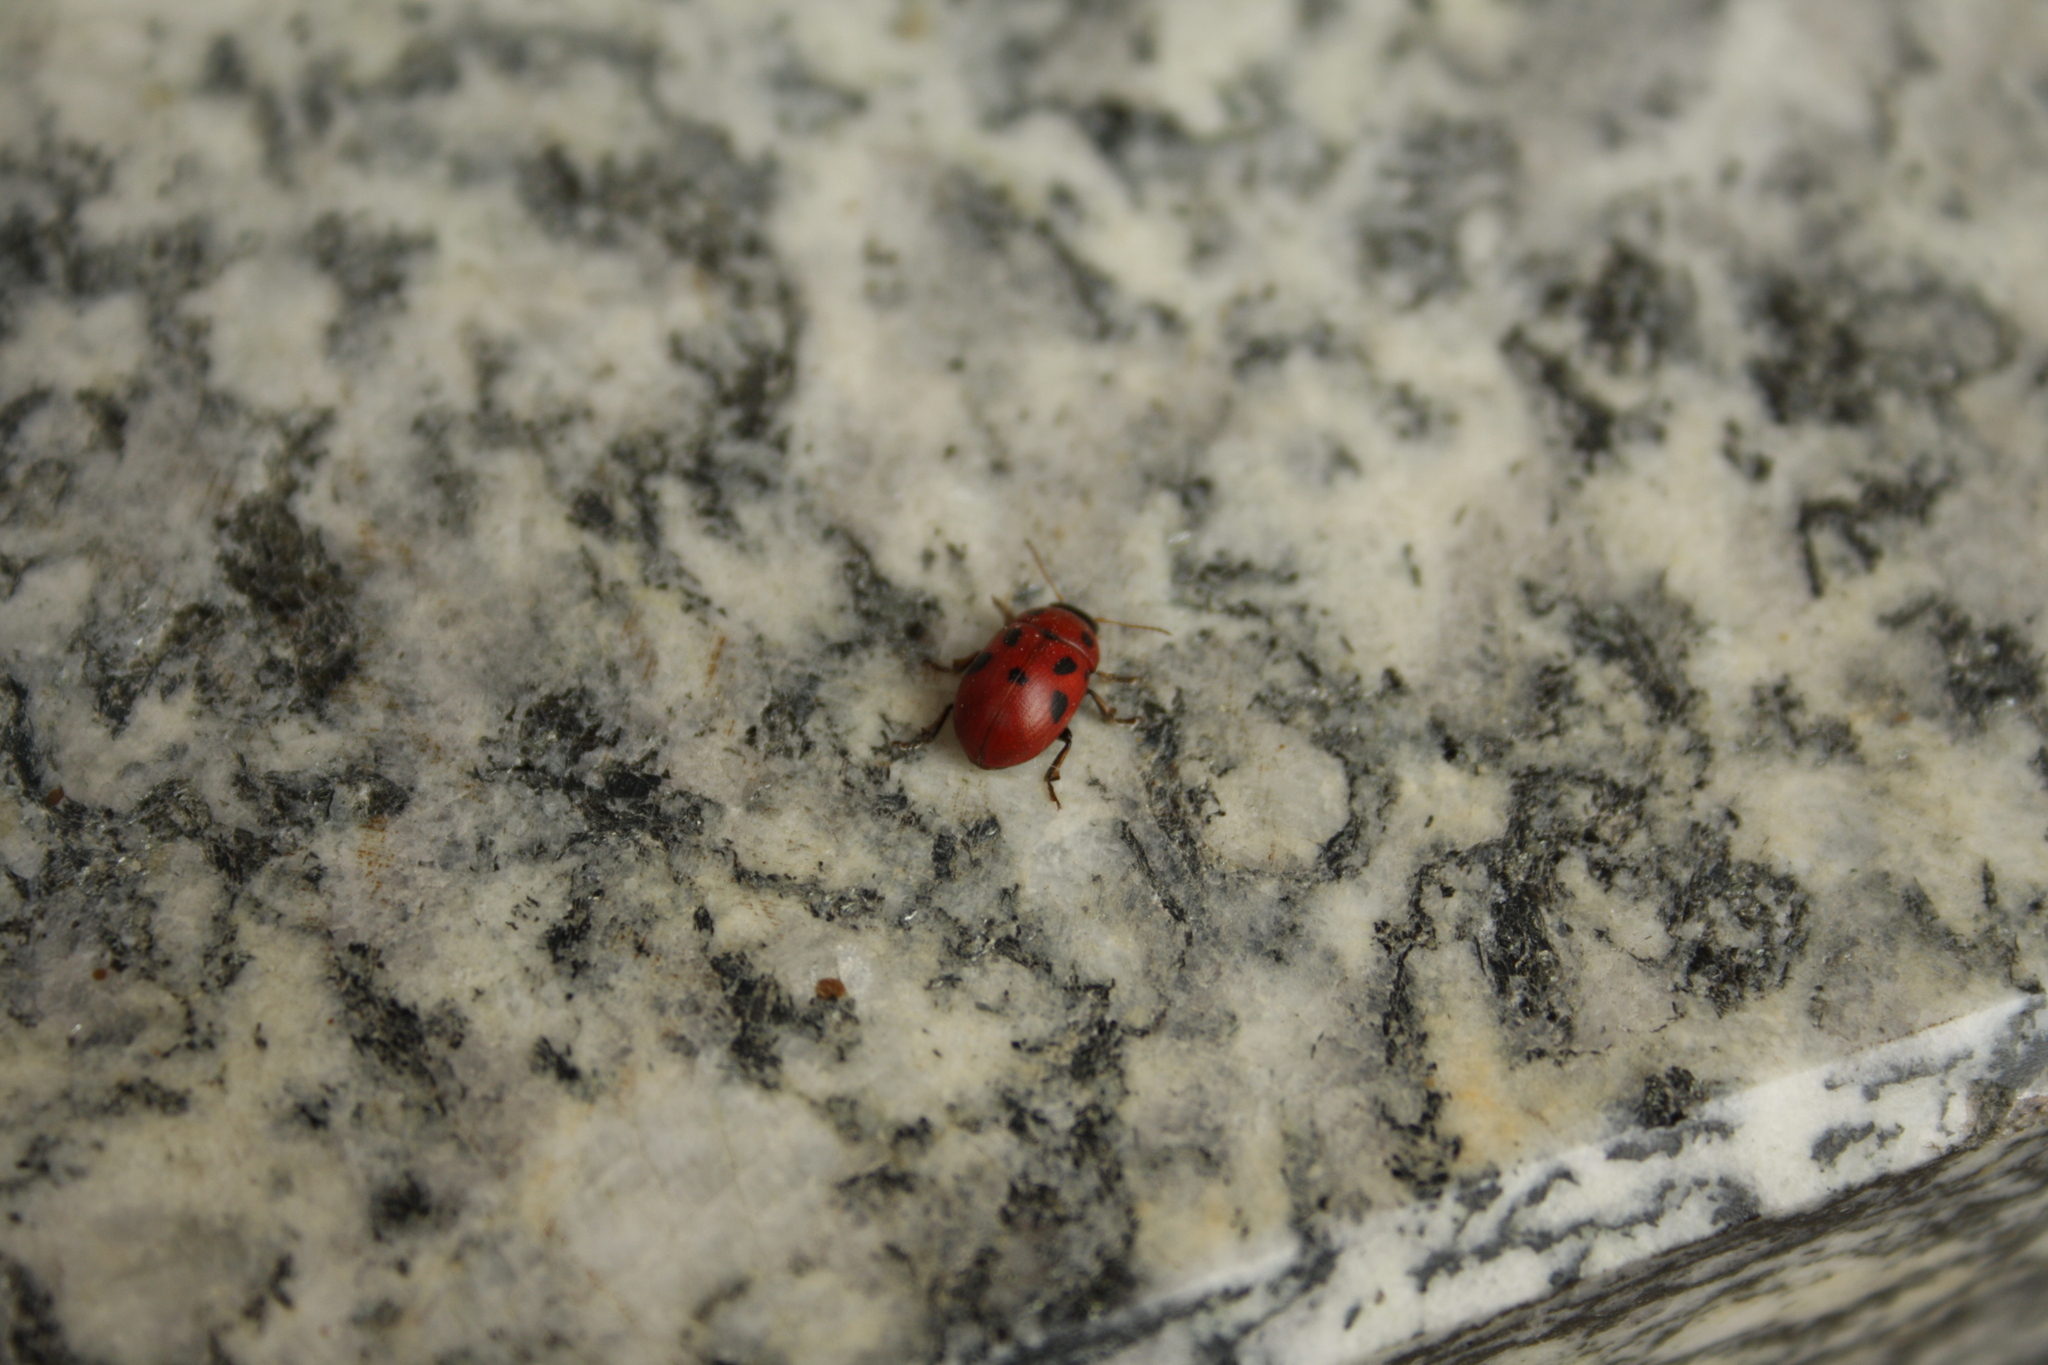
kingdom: Animalia
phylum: Arthropoda
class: Insecta
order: Coleoptera
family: Chrysomelidae
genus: Gonioctena
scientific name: Gonioctena fornicata
